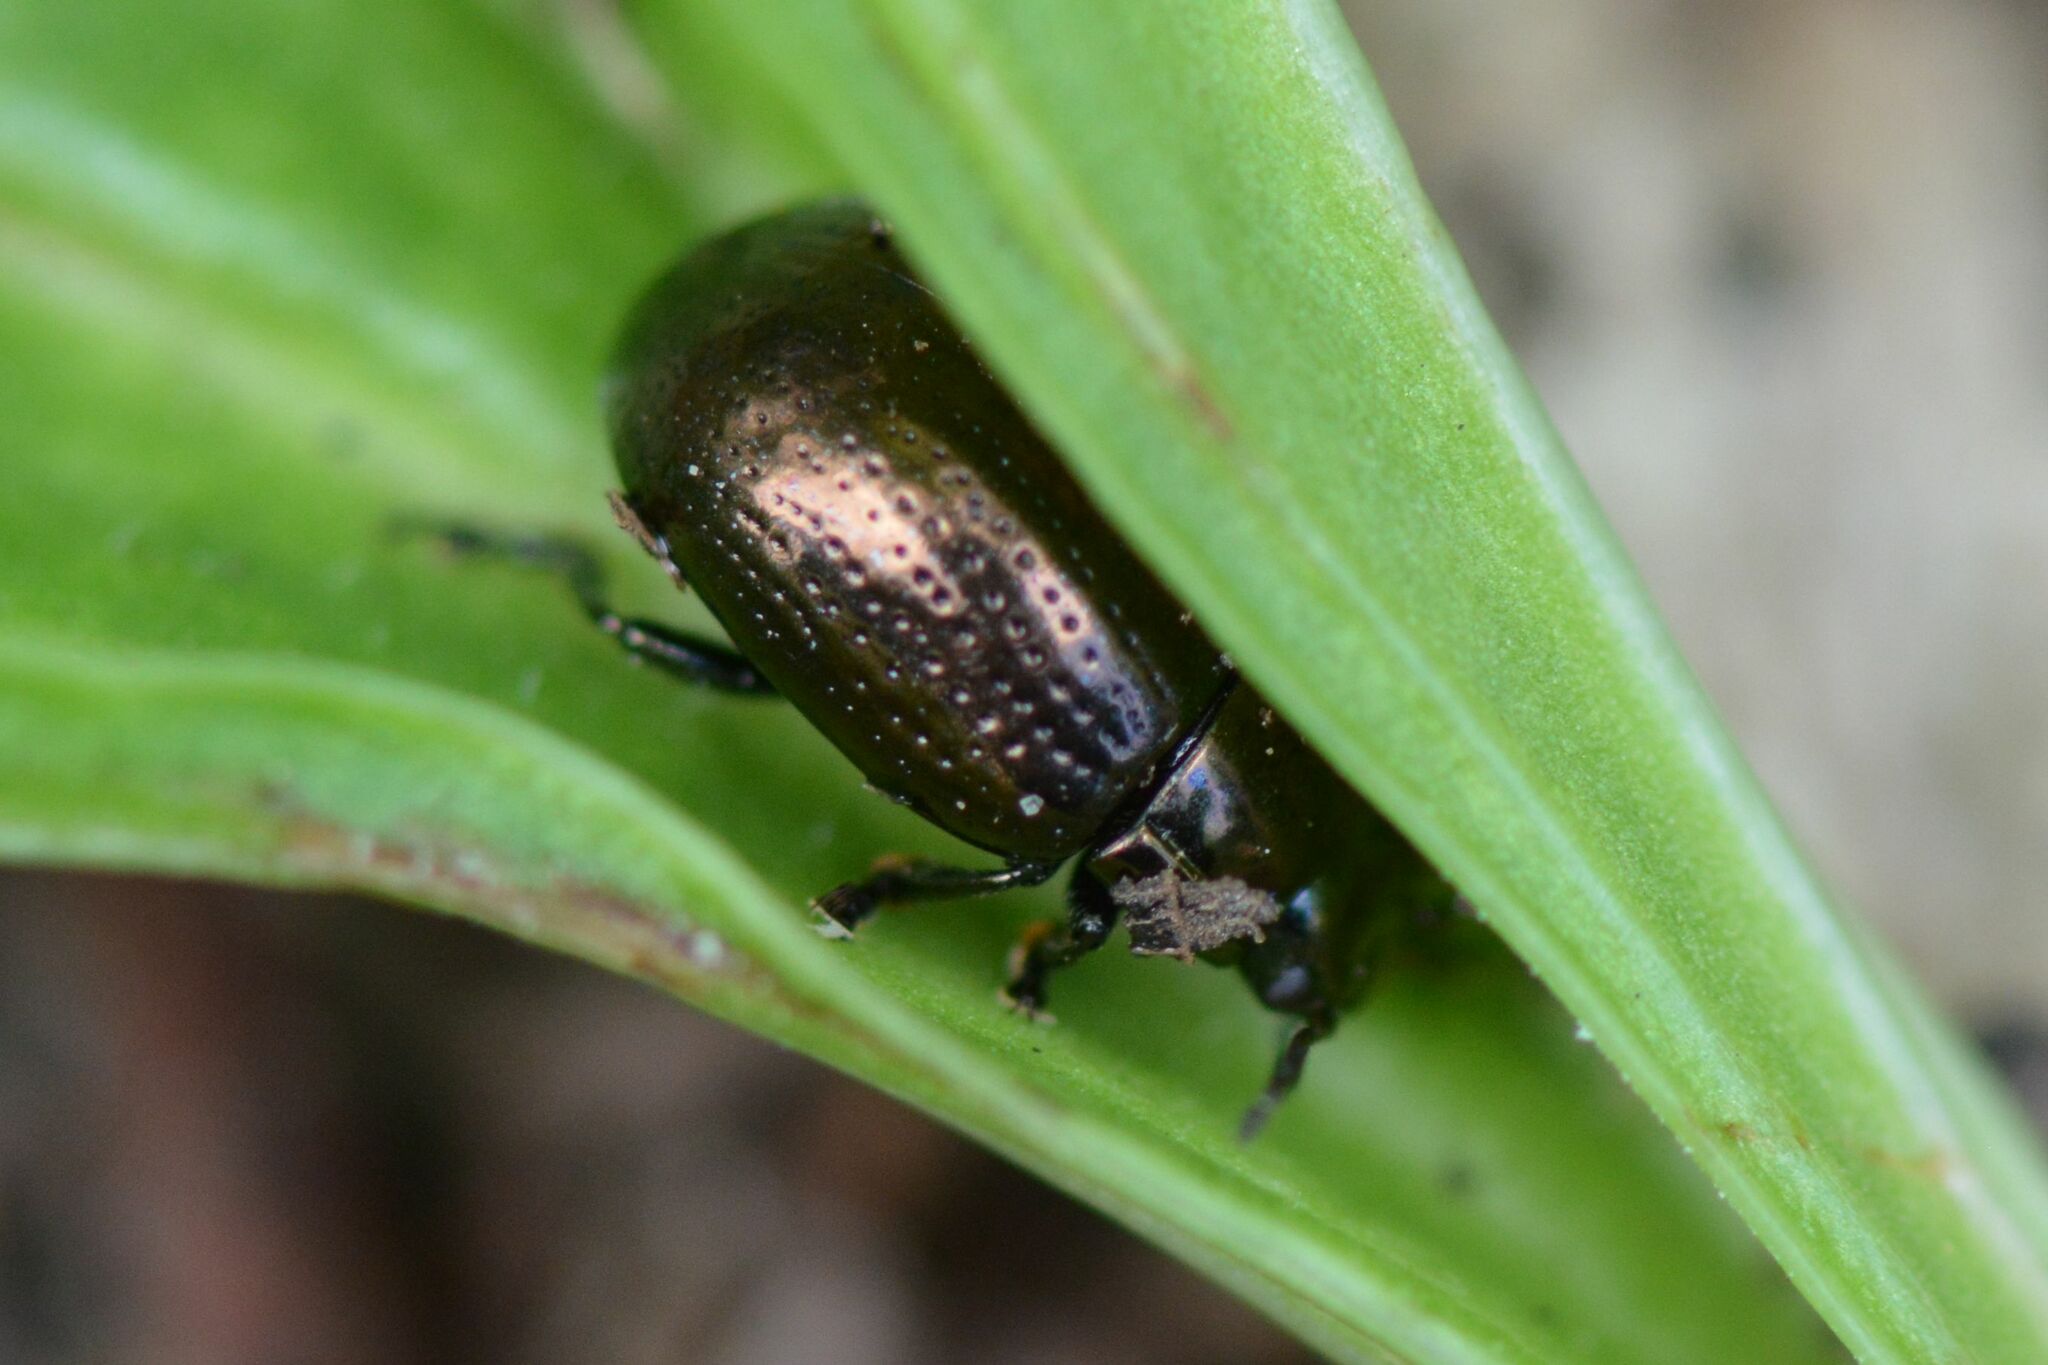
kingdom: Animalia
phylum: Arthropoda
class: Insecta
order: Coleoptera
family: Chrysomelidae
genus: Chrysolina
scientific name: Chrysolina oricalcia
